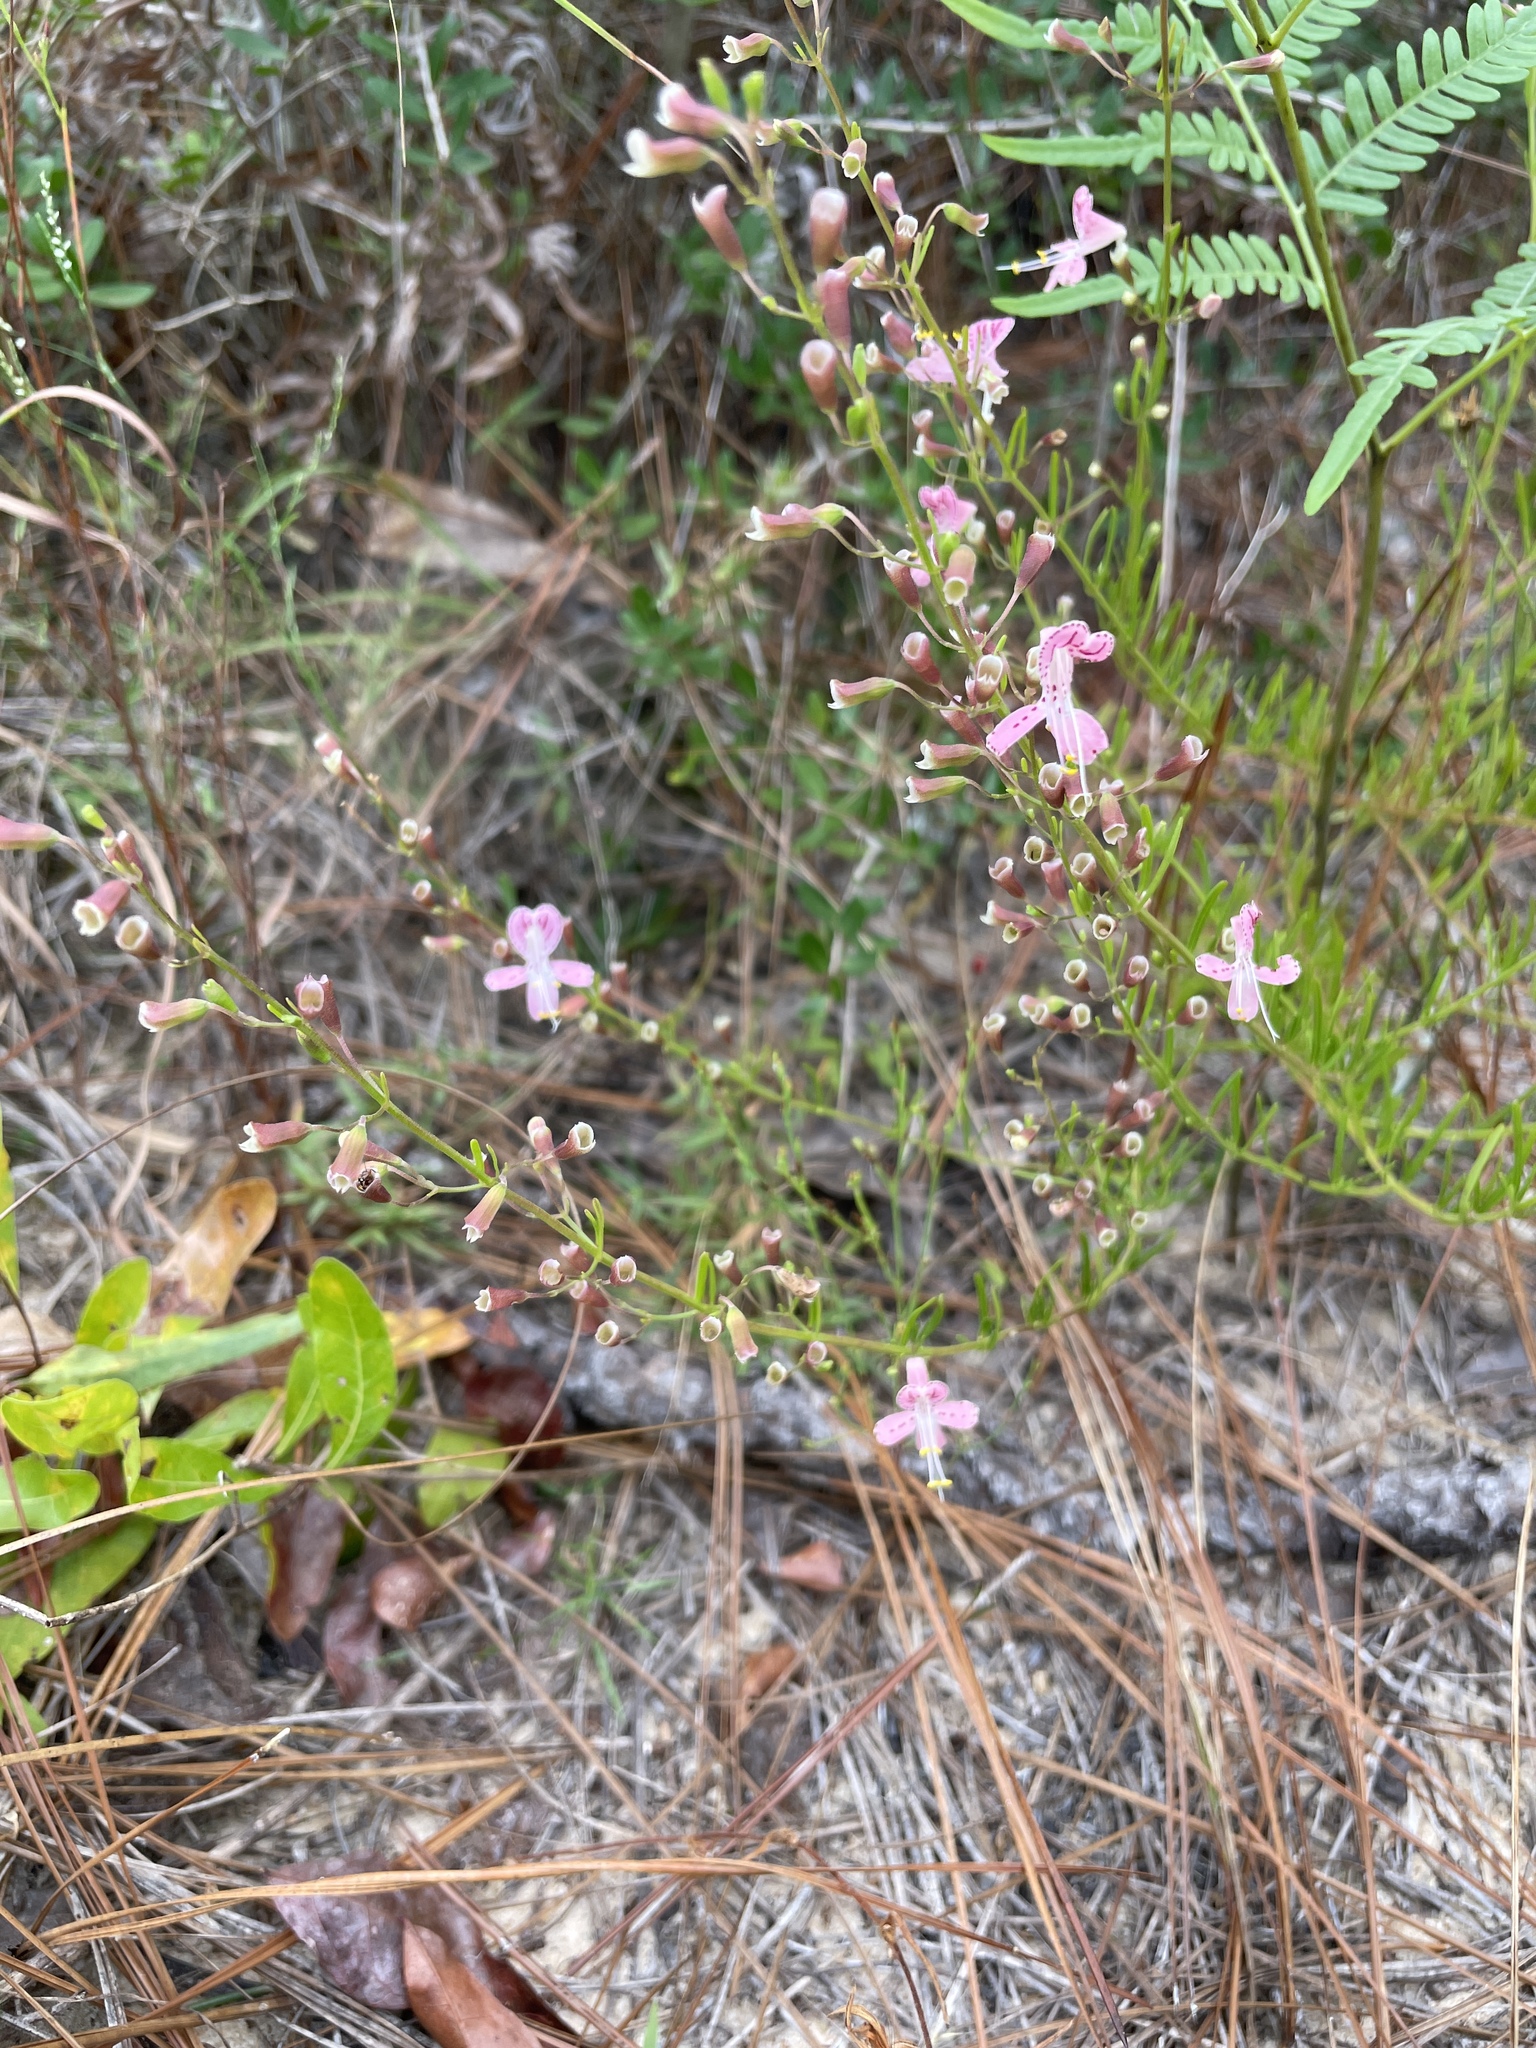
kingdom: Plantae
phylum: Tracheophyta
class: Magnoliopsida
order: Lamiales
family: Lamiaceae
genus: Dicerandra
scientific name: Dicerandra fumella
